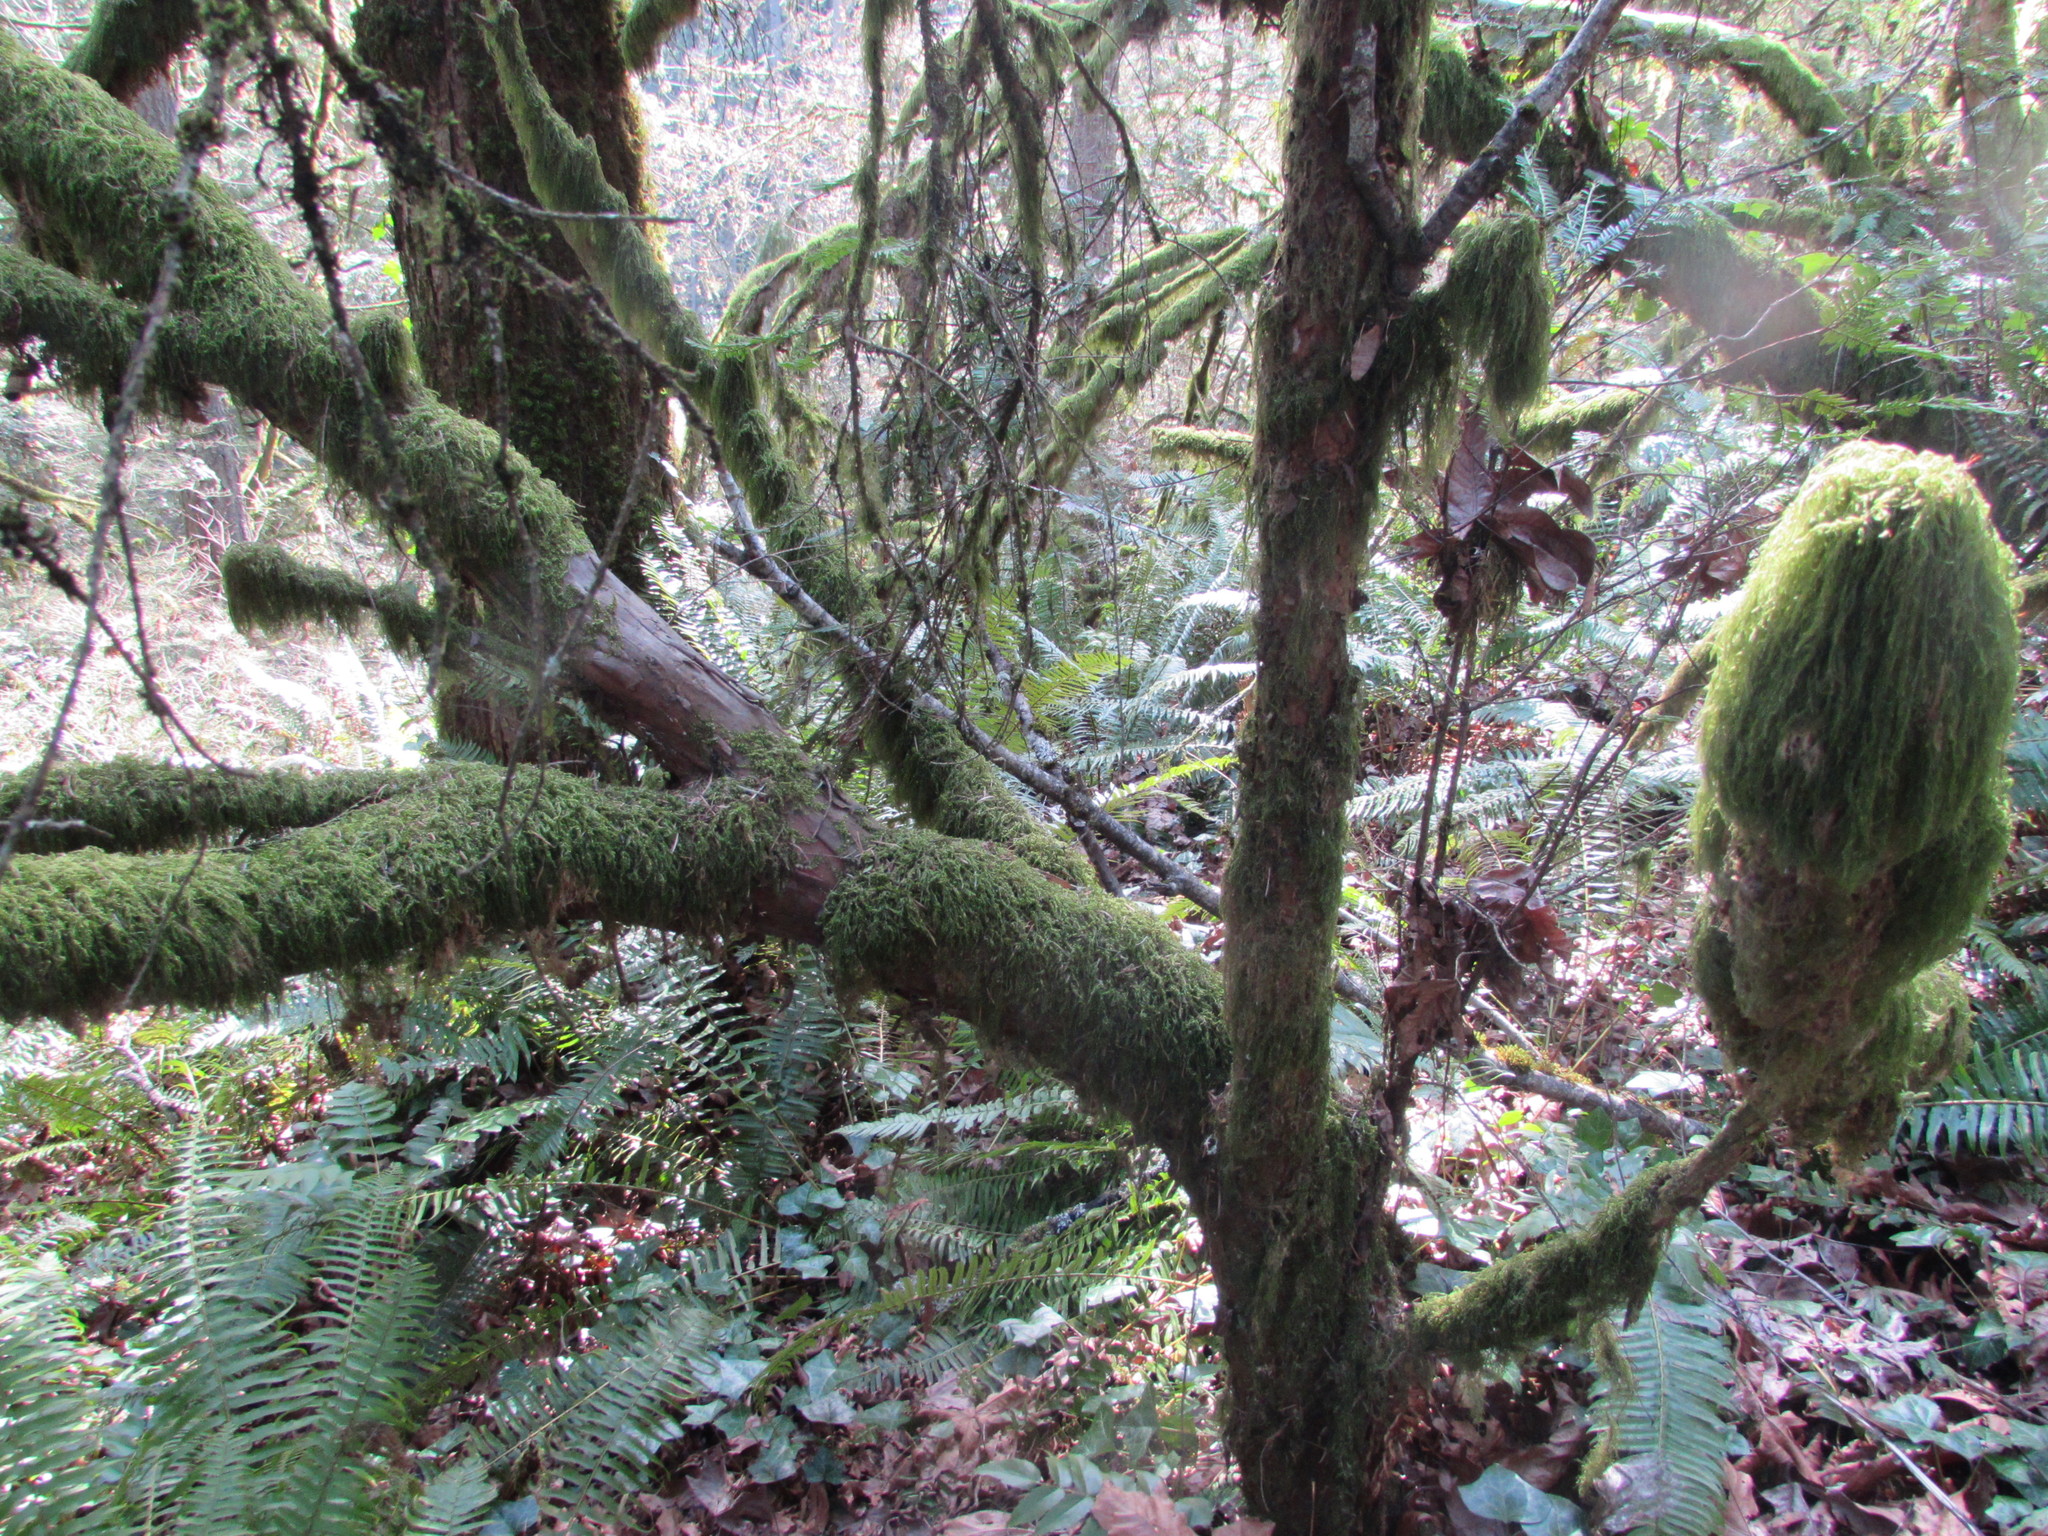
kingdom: Plantae
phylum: Tracheophyta
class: Pinopsida
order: Pinales
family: Taxaceae
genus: Taxus
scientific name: Taxus brevifolia
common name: Pacific yew
